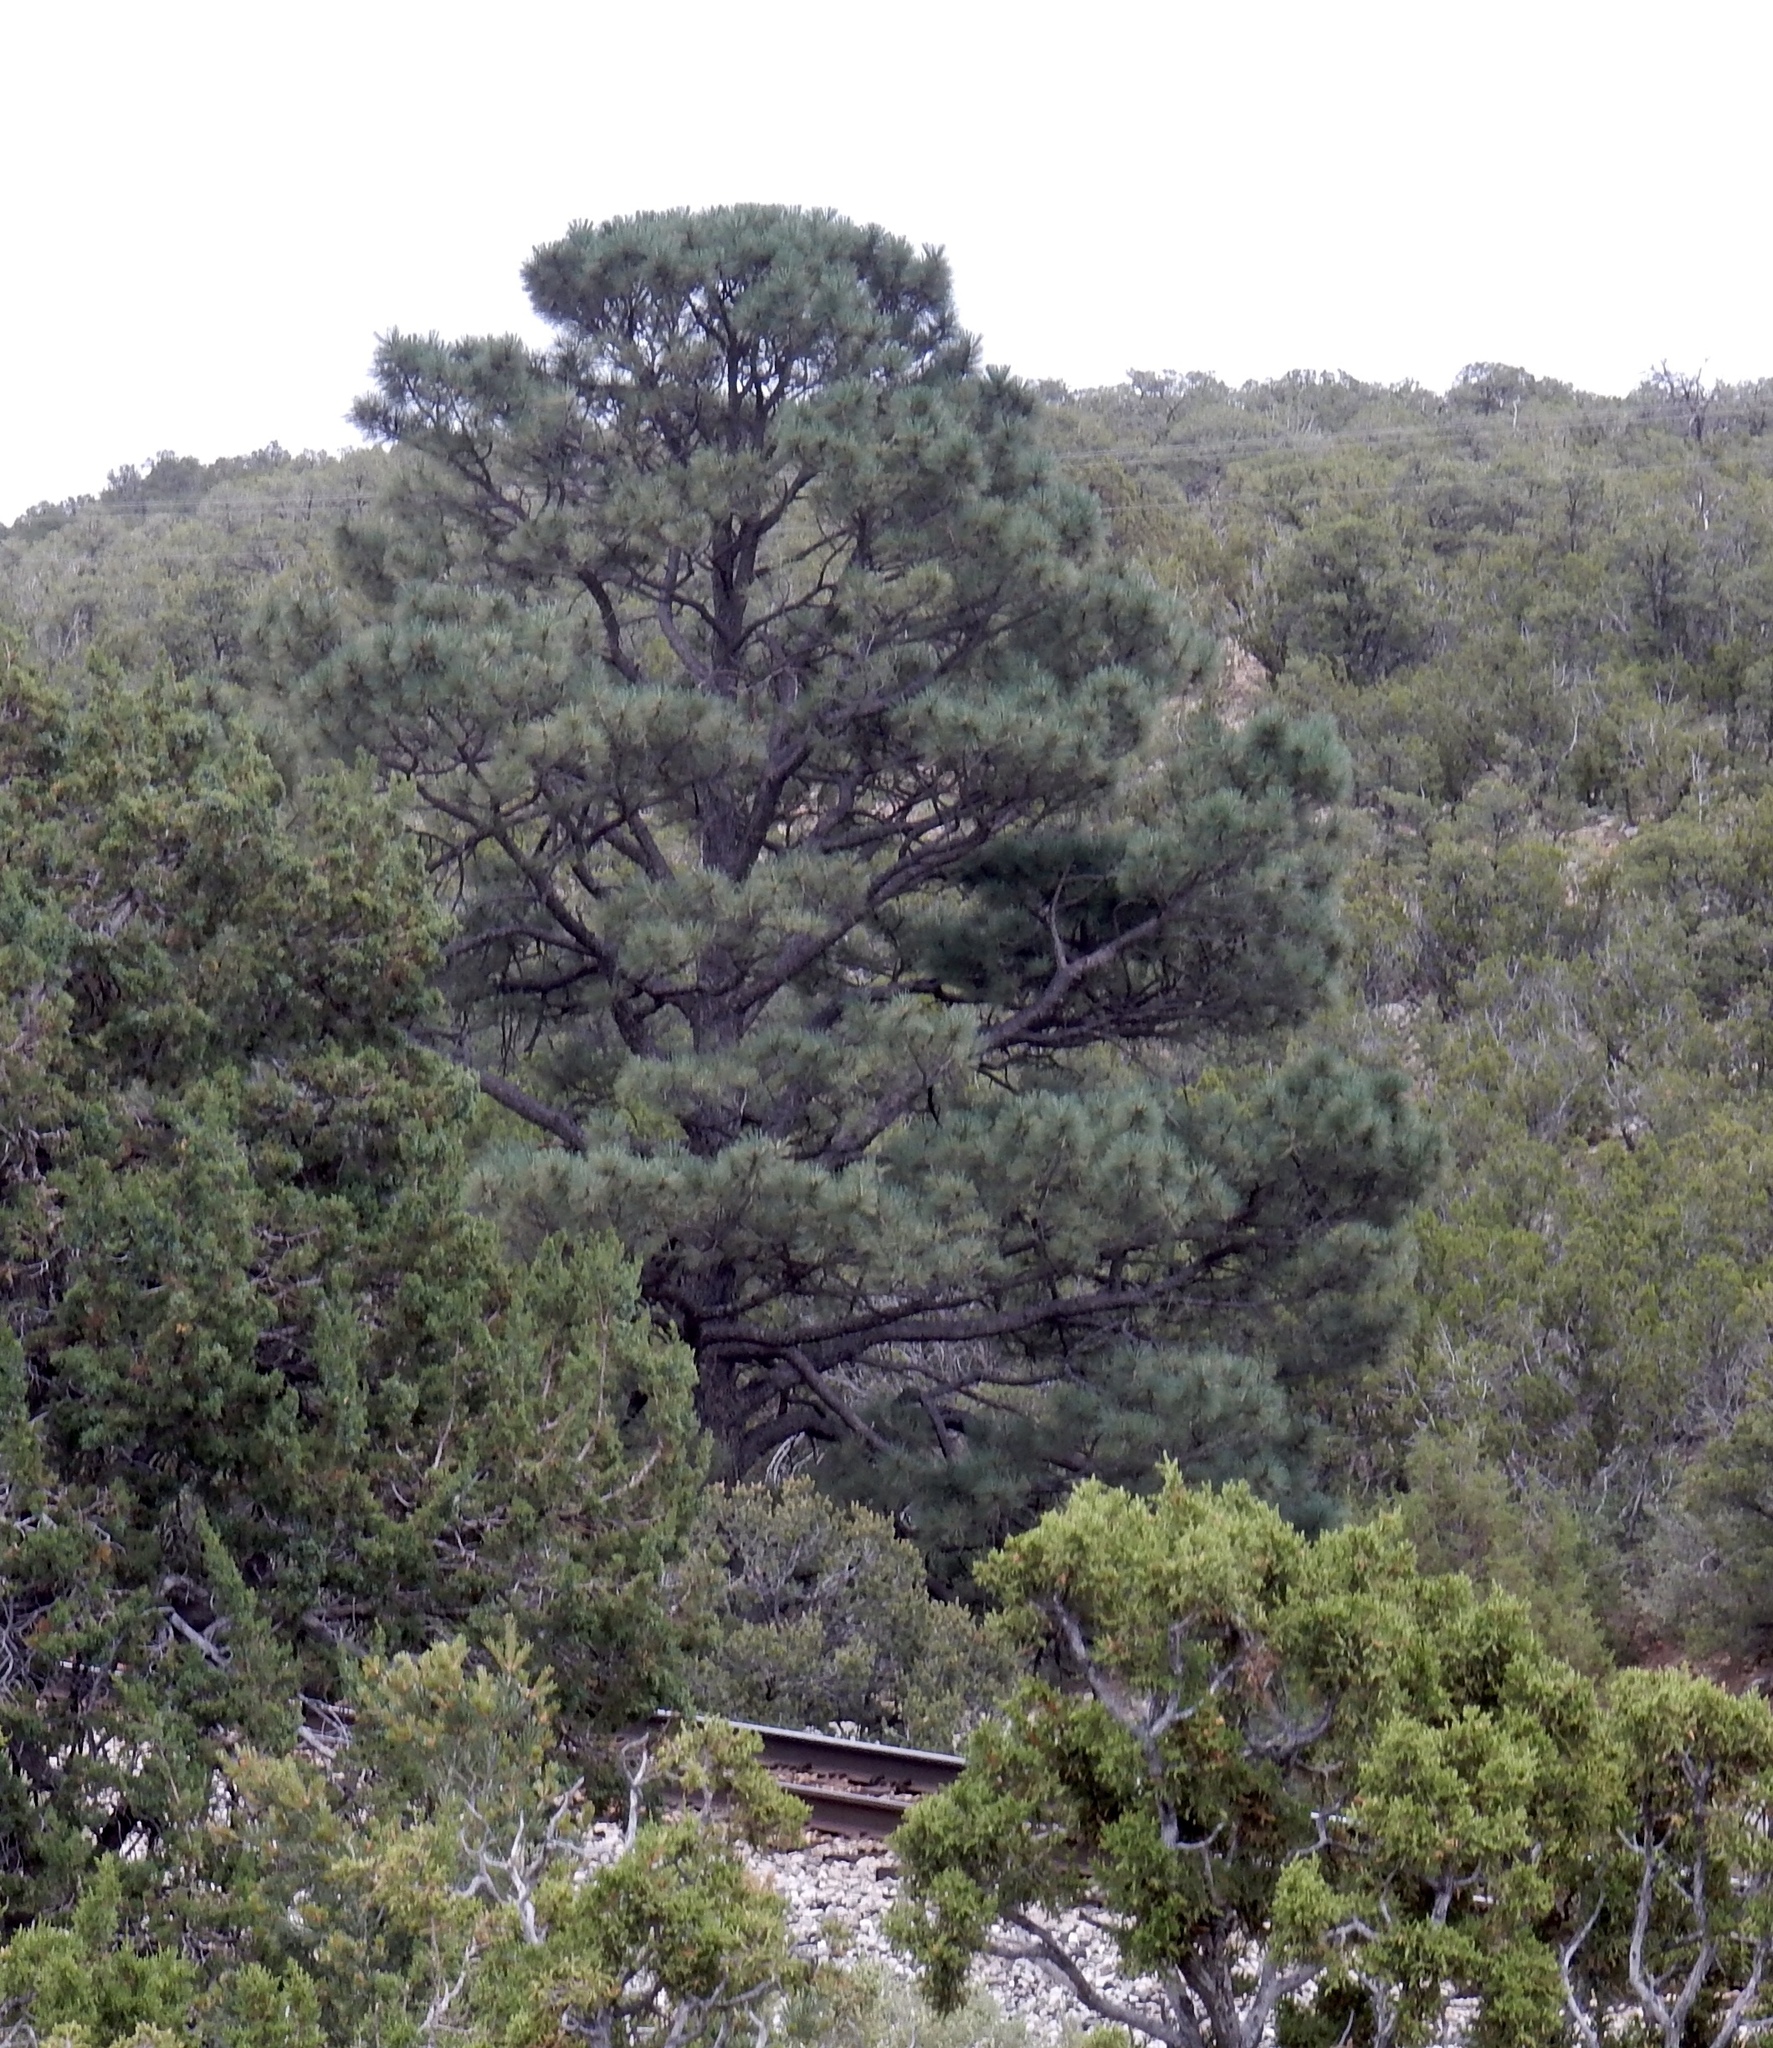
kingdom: Plantae
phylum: Tracheophyta
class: Pinopsida
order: Pinales
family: Pinaceae
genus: Pinus
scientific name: Pinus ponderosa
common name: Western yellow-pine
